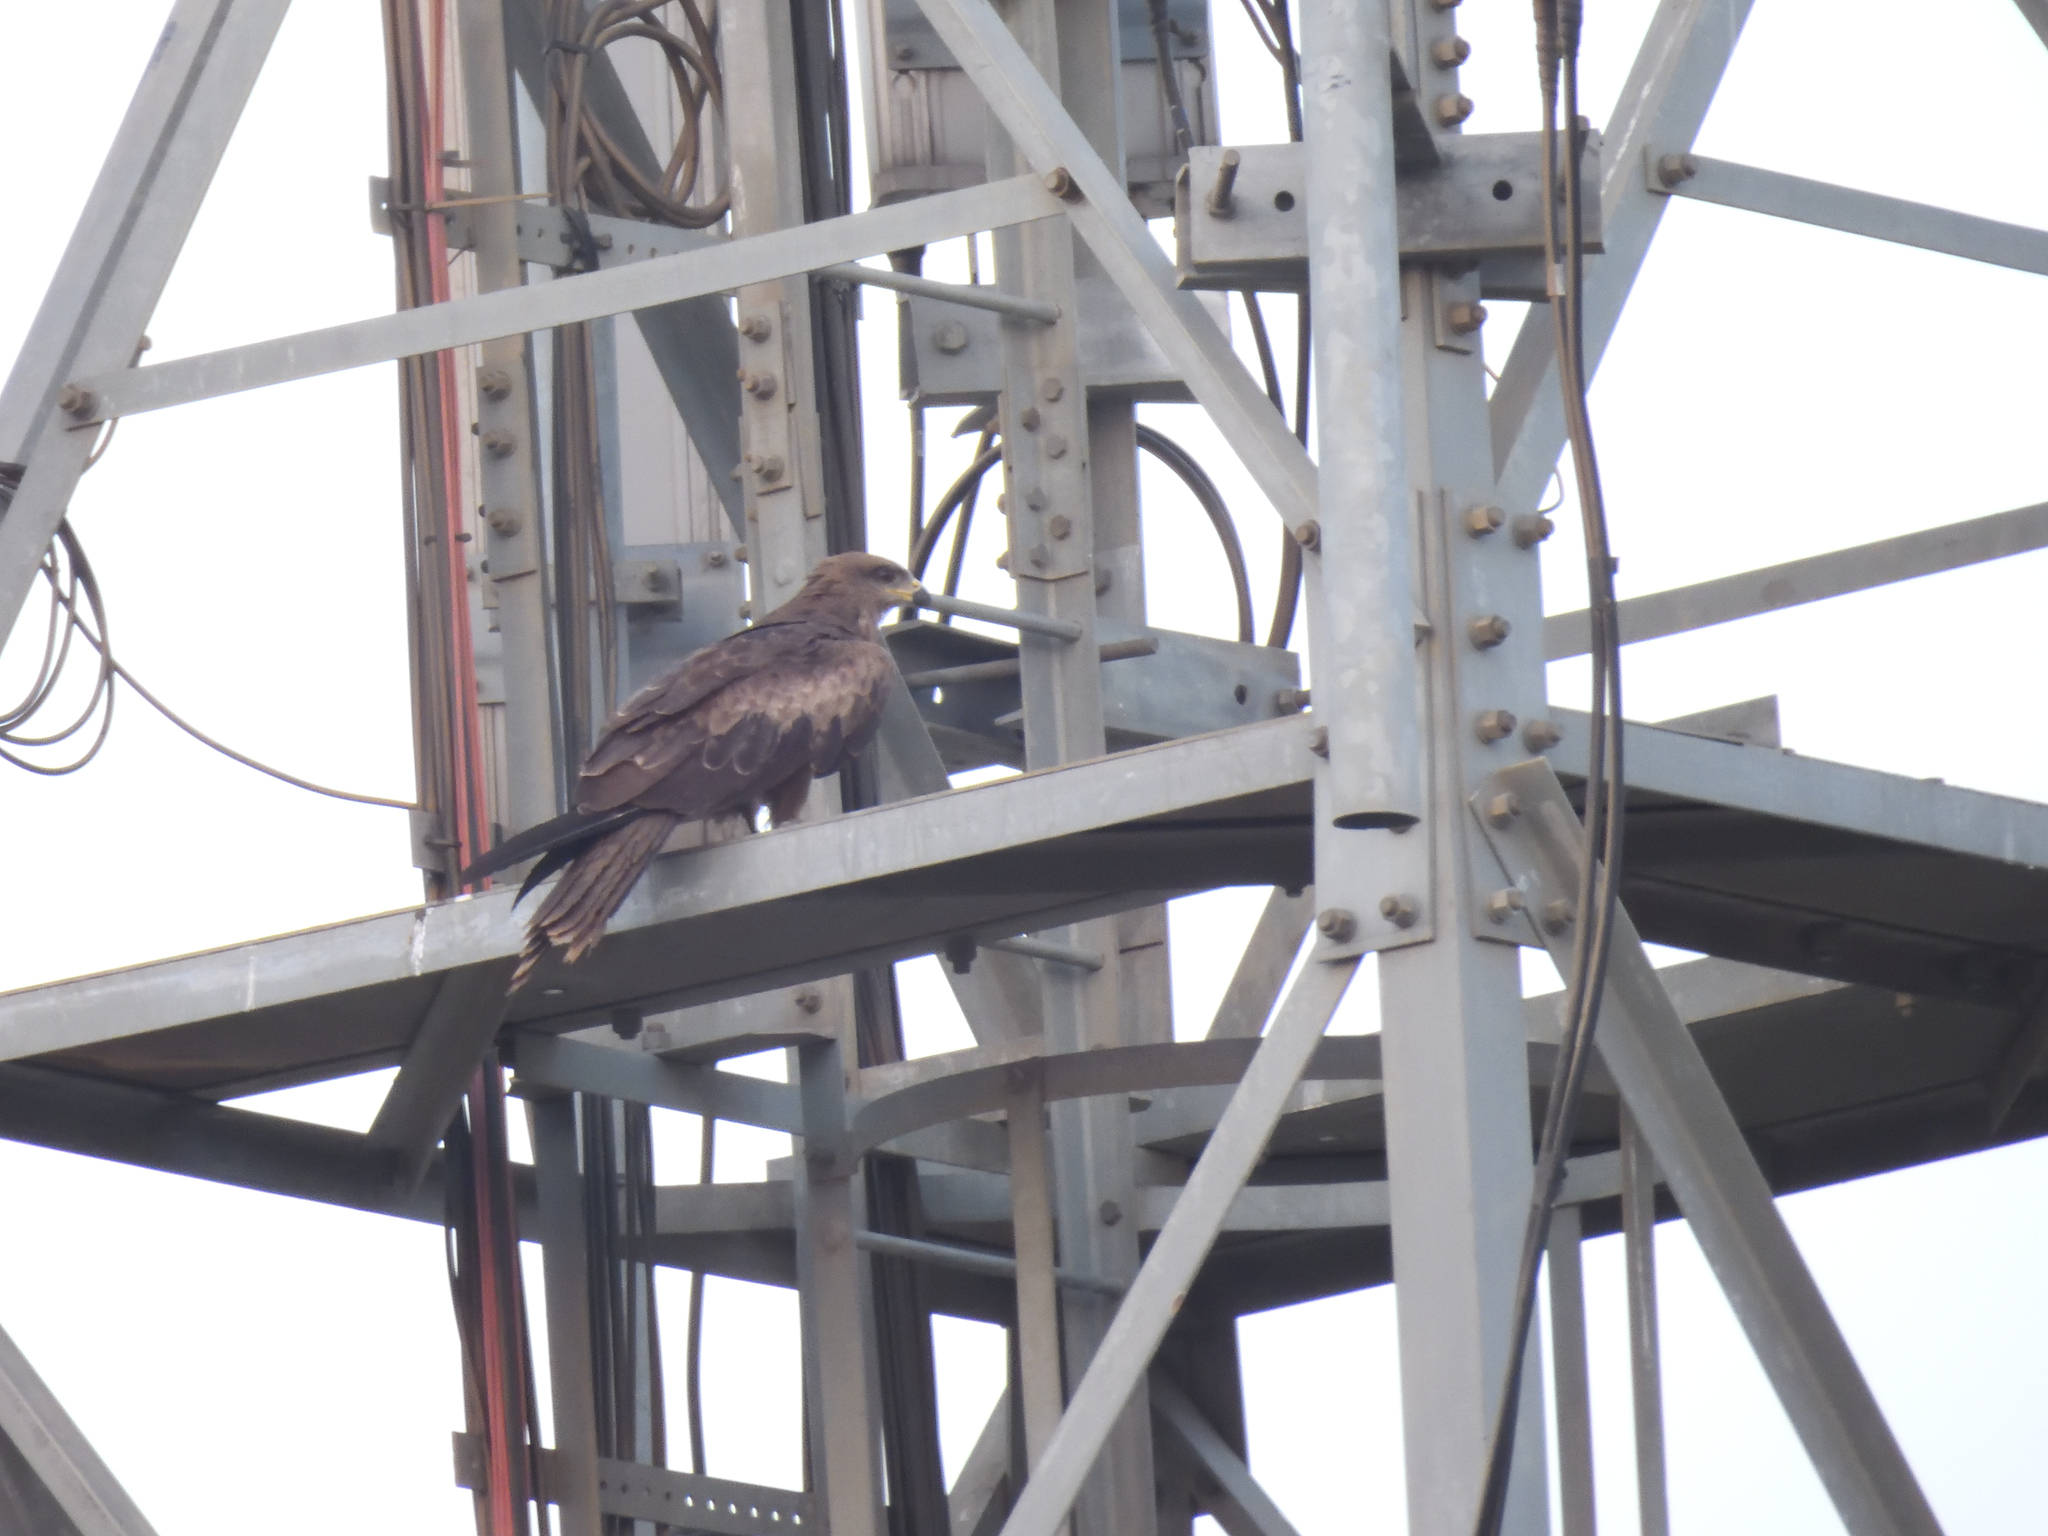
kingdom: Animalia
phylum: Chordata
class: Aves
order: Accipitriformes
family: Accipitridae
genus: Milvus
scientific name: Milvus migrans
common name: Black kite
